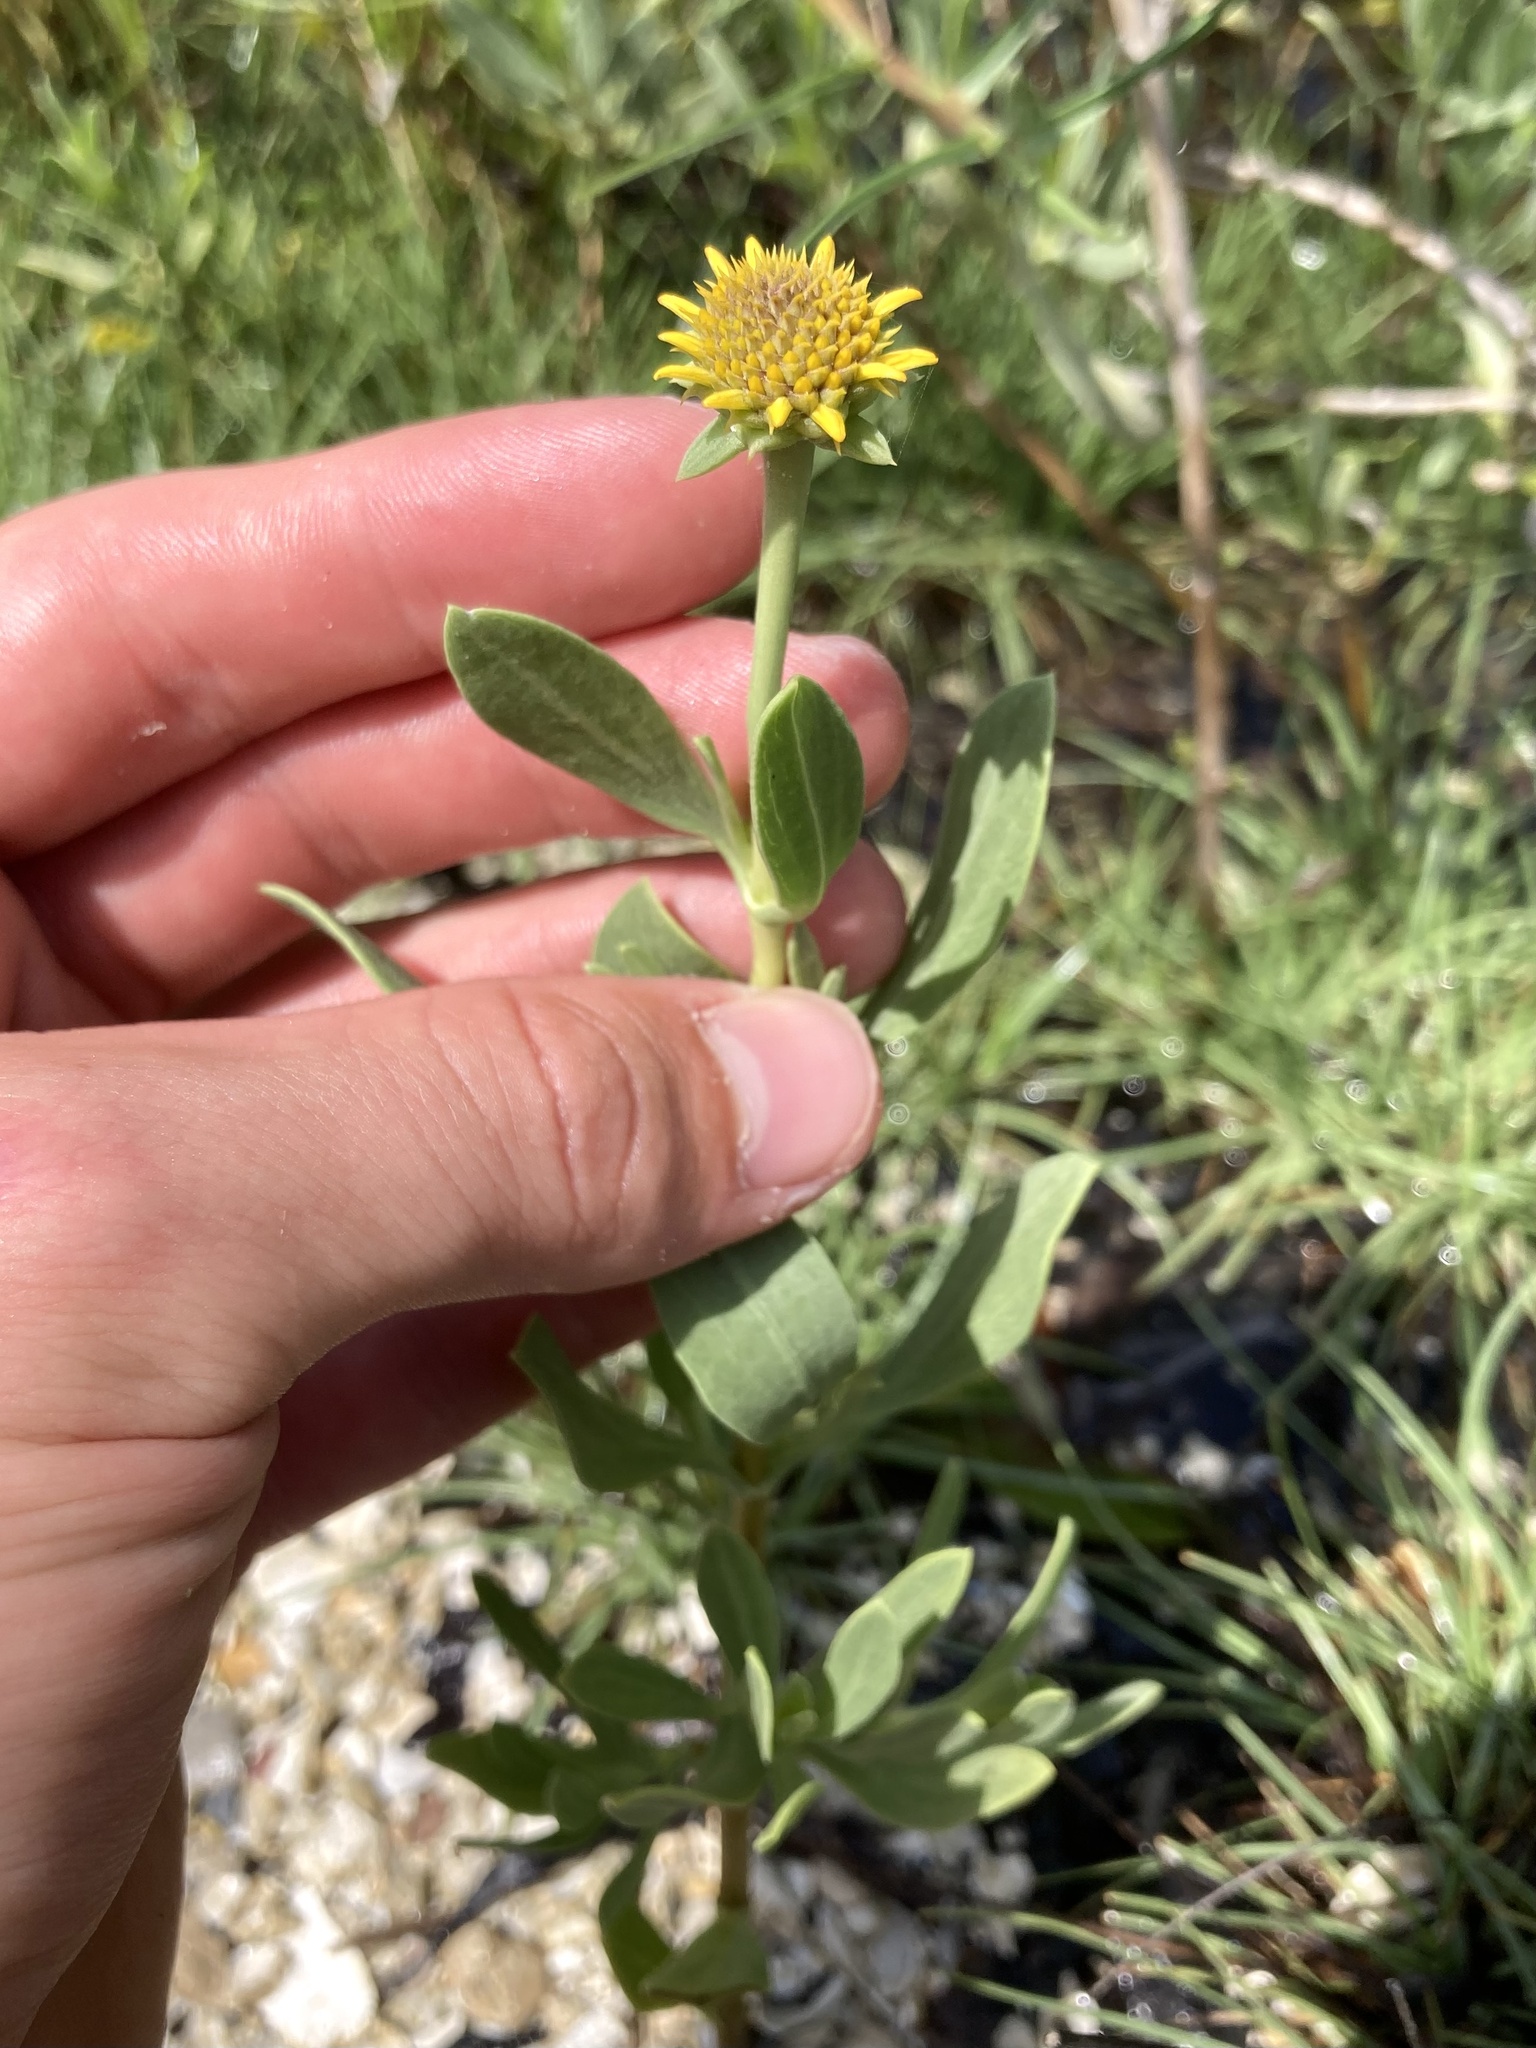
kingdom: Plantae
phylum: Tracheophyta
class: Magnoliopsida
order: Asterales
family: Asteraceae
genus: Borrichia
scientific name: Borrichia frutescens
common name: Sea oxeye
